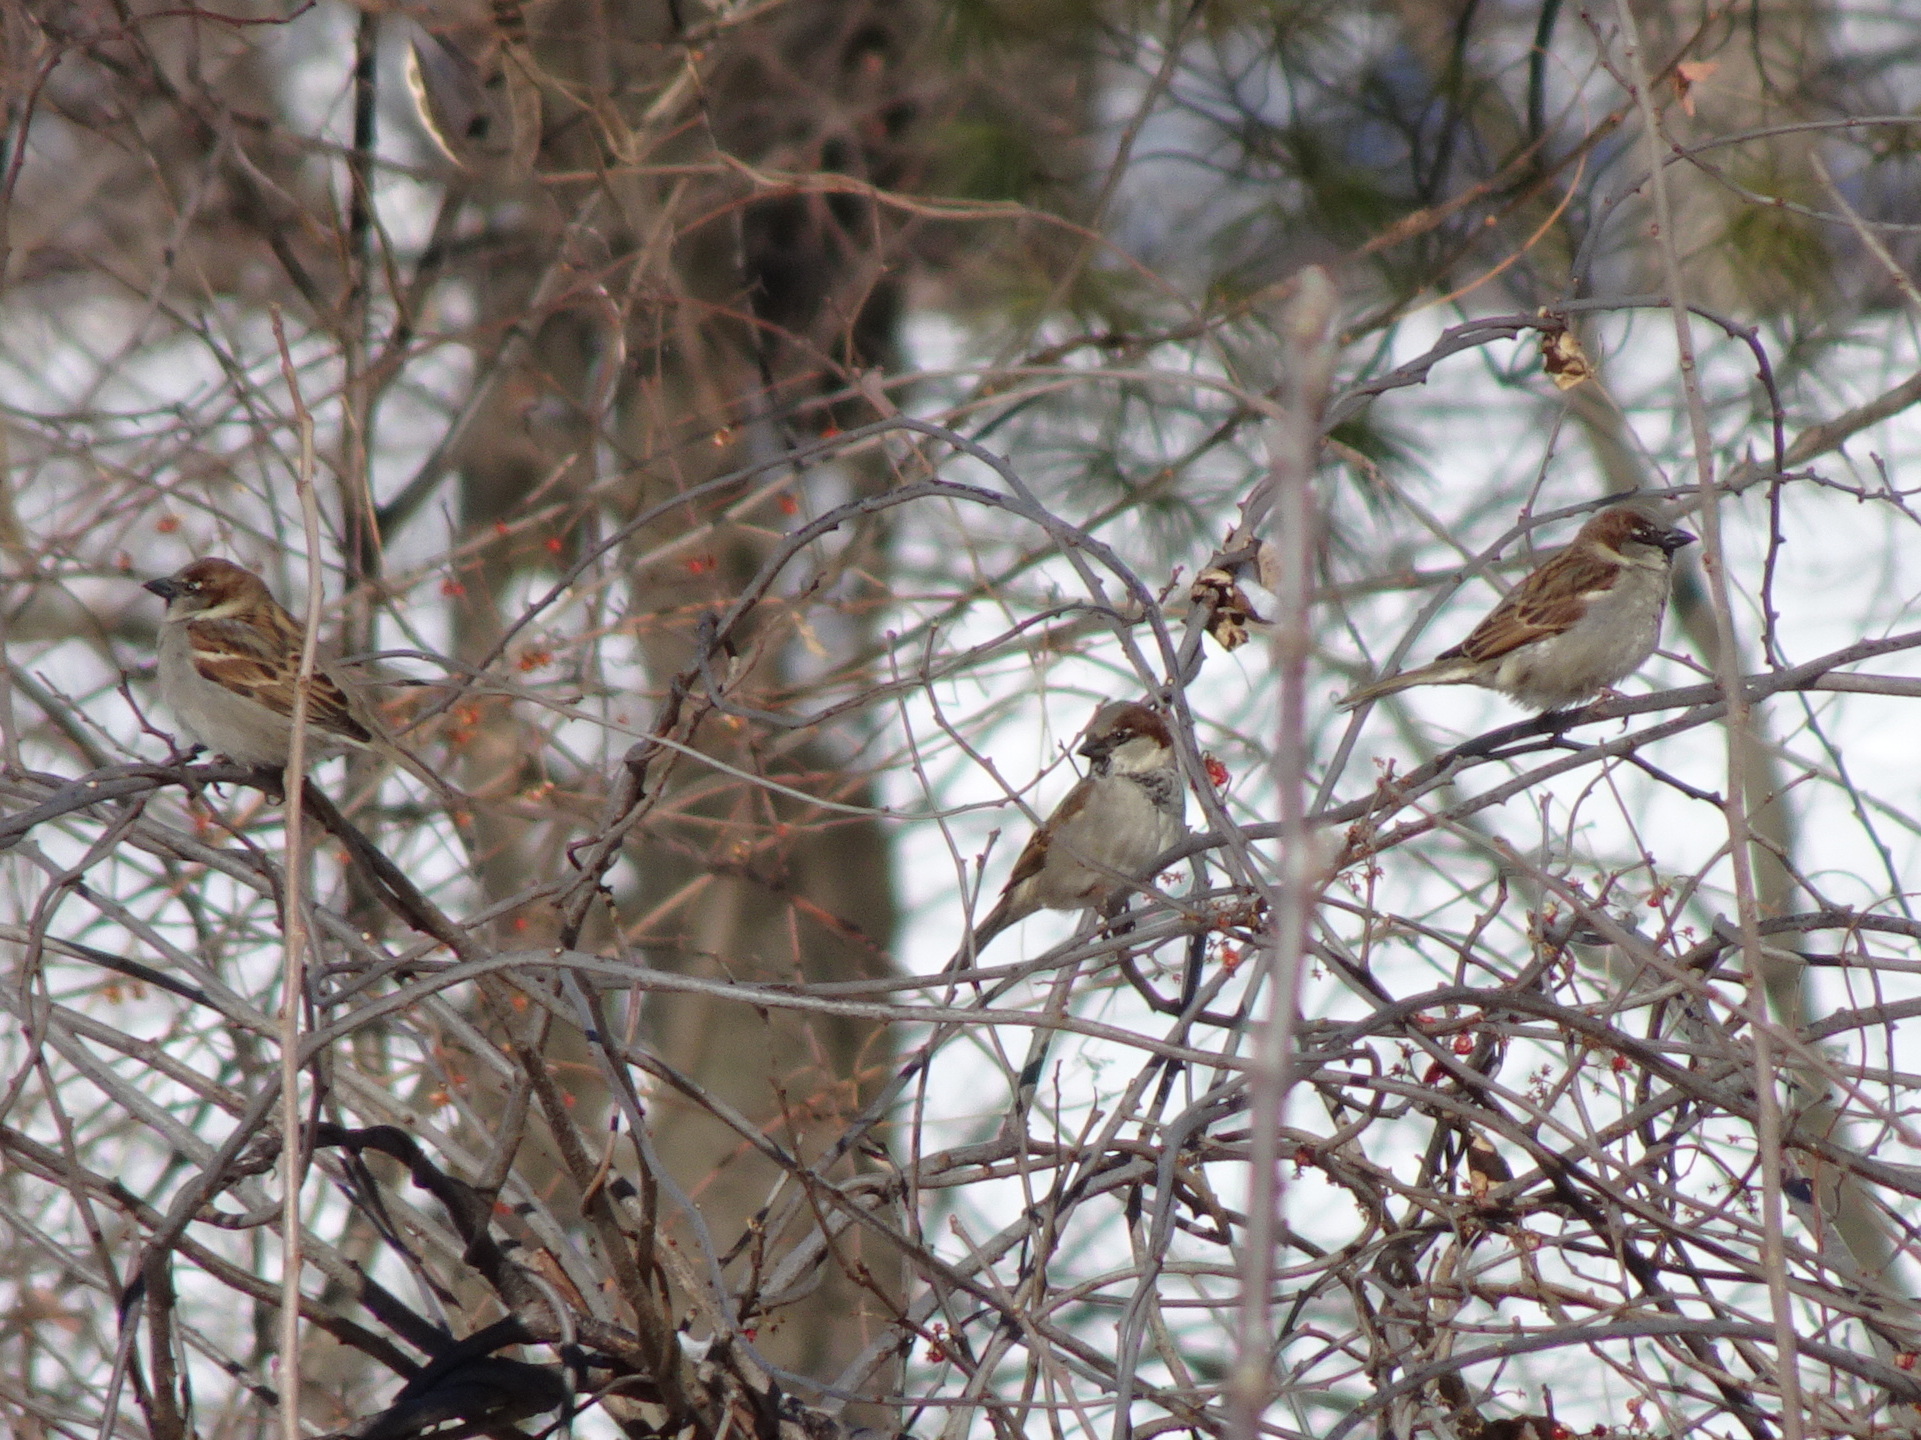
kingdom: Animalia
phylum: Chordata
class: Aves
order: Passeriformes
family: Passeridae
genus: Passer
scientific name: Passer domesticus
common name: House sparrow
